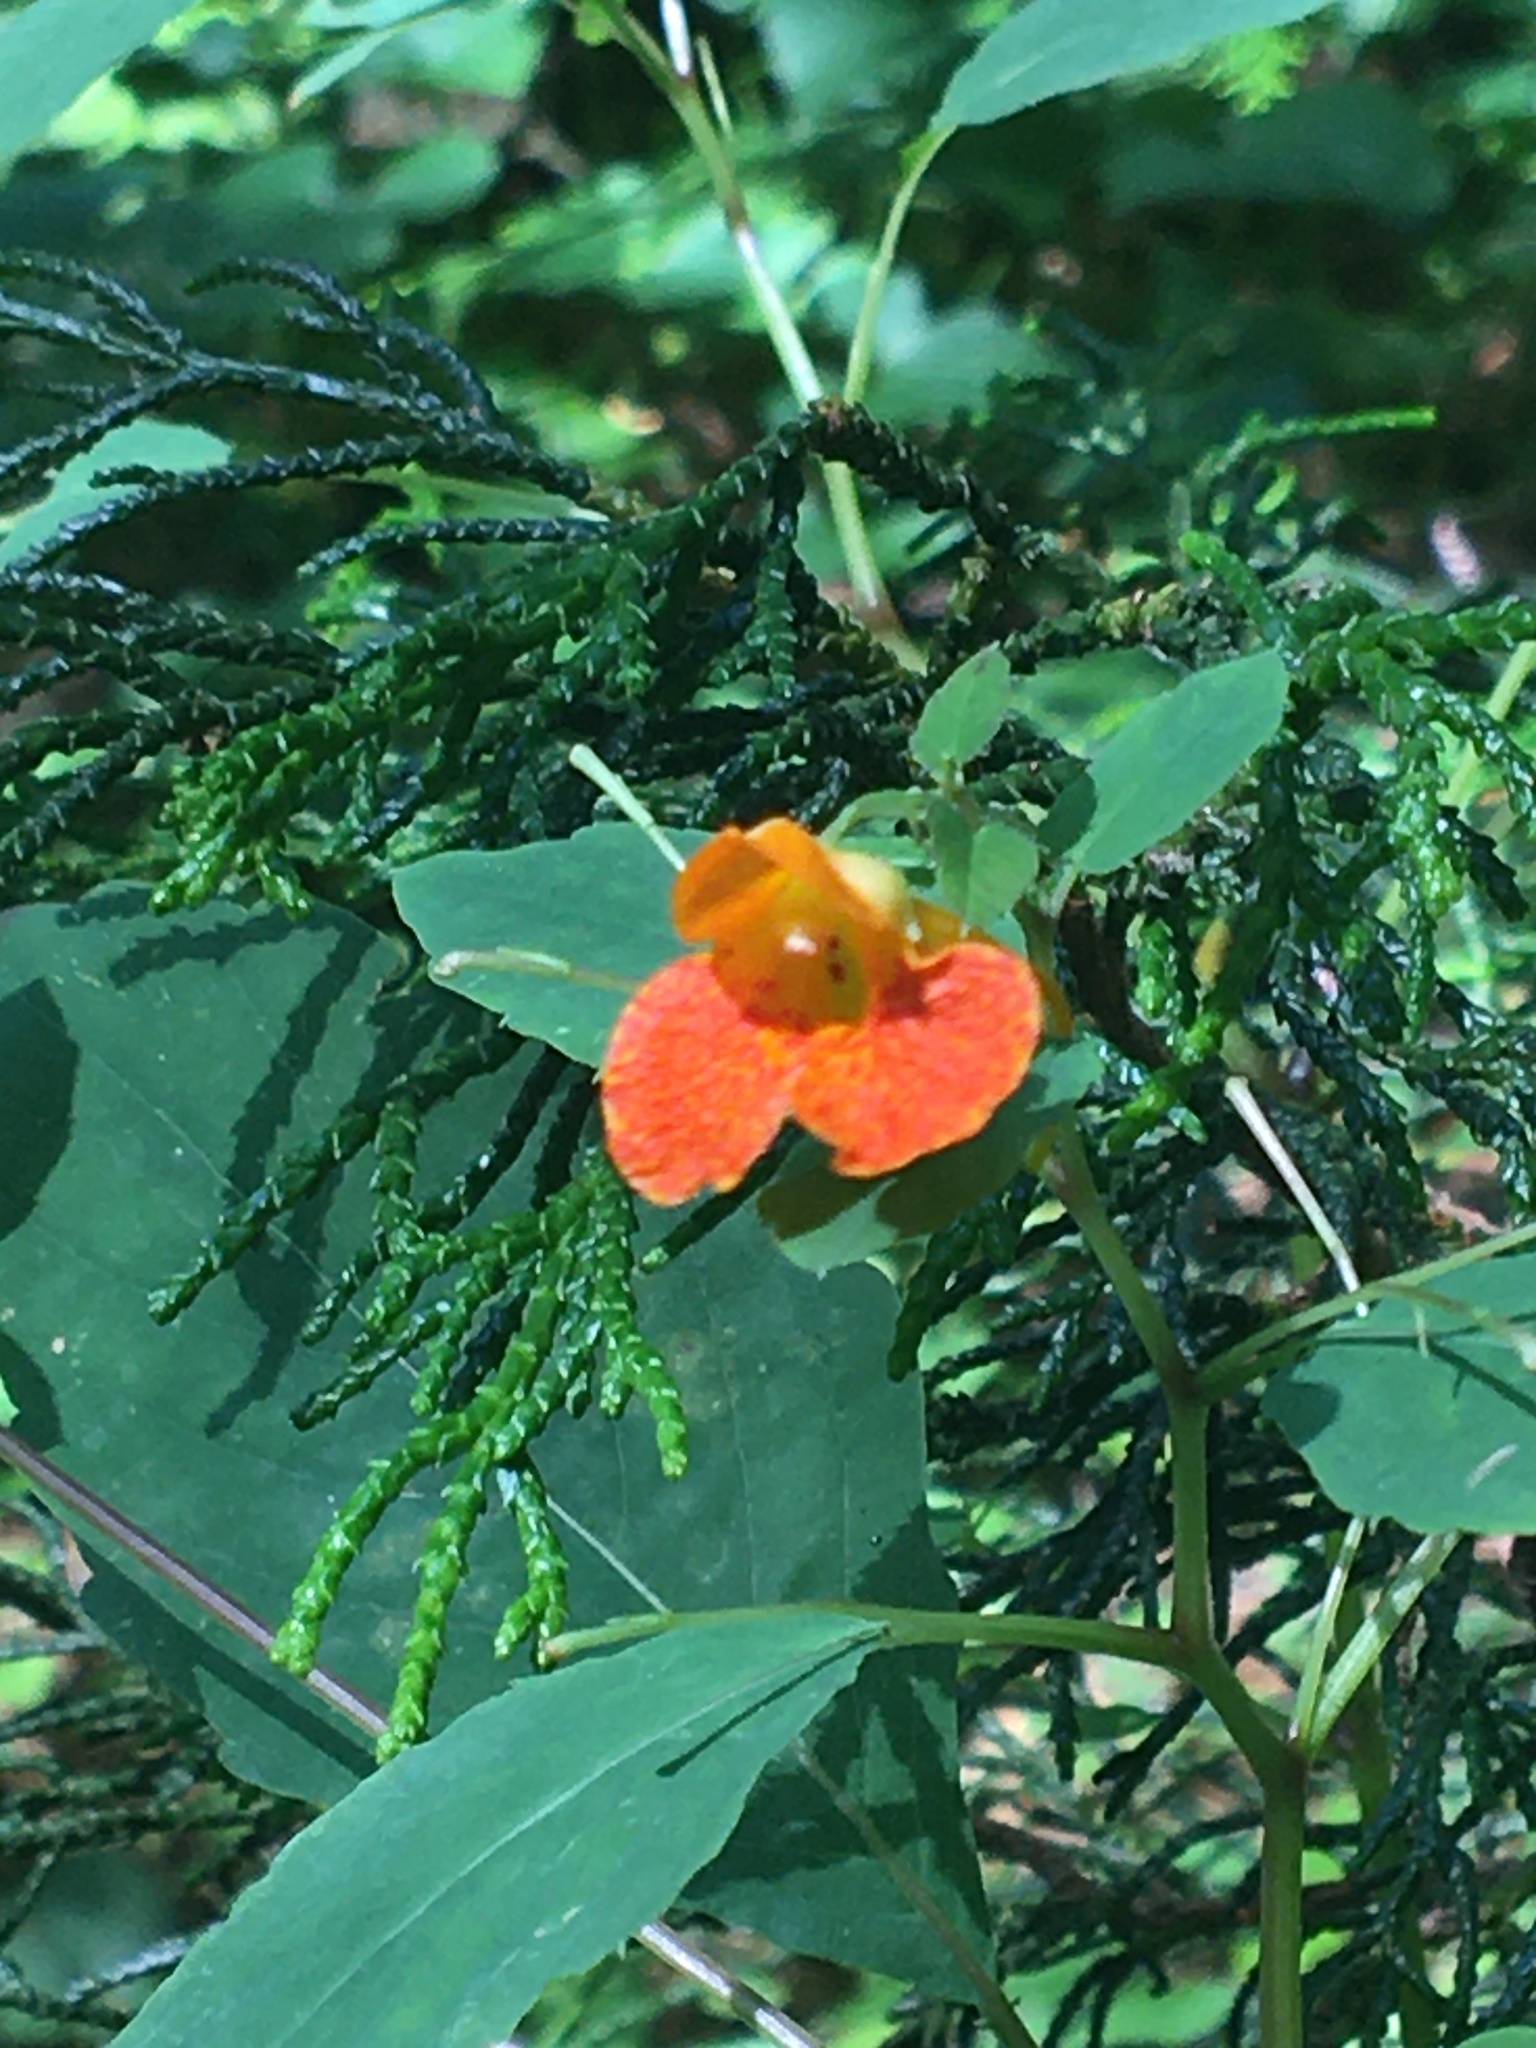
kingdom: Plantae
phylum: Tracheophyta
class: Magnoliopsida
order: Ericales
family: Balsaminaceae
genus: Impatiens
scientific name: Impatiens capensis
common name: Orange balsam
